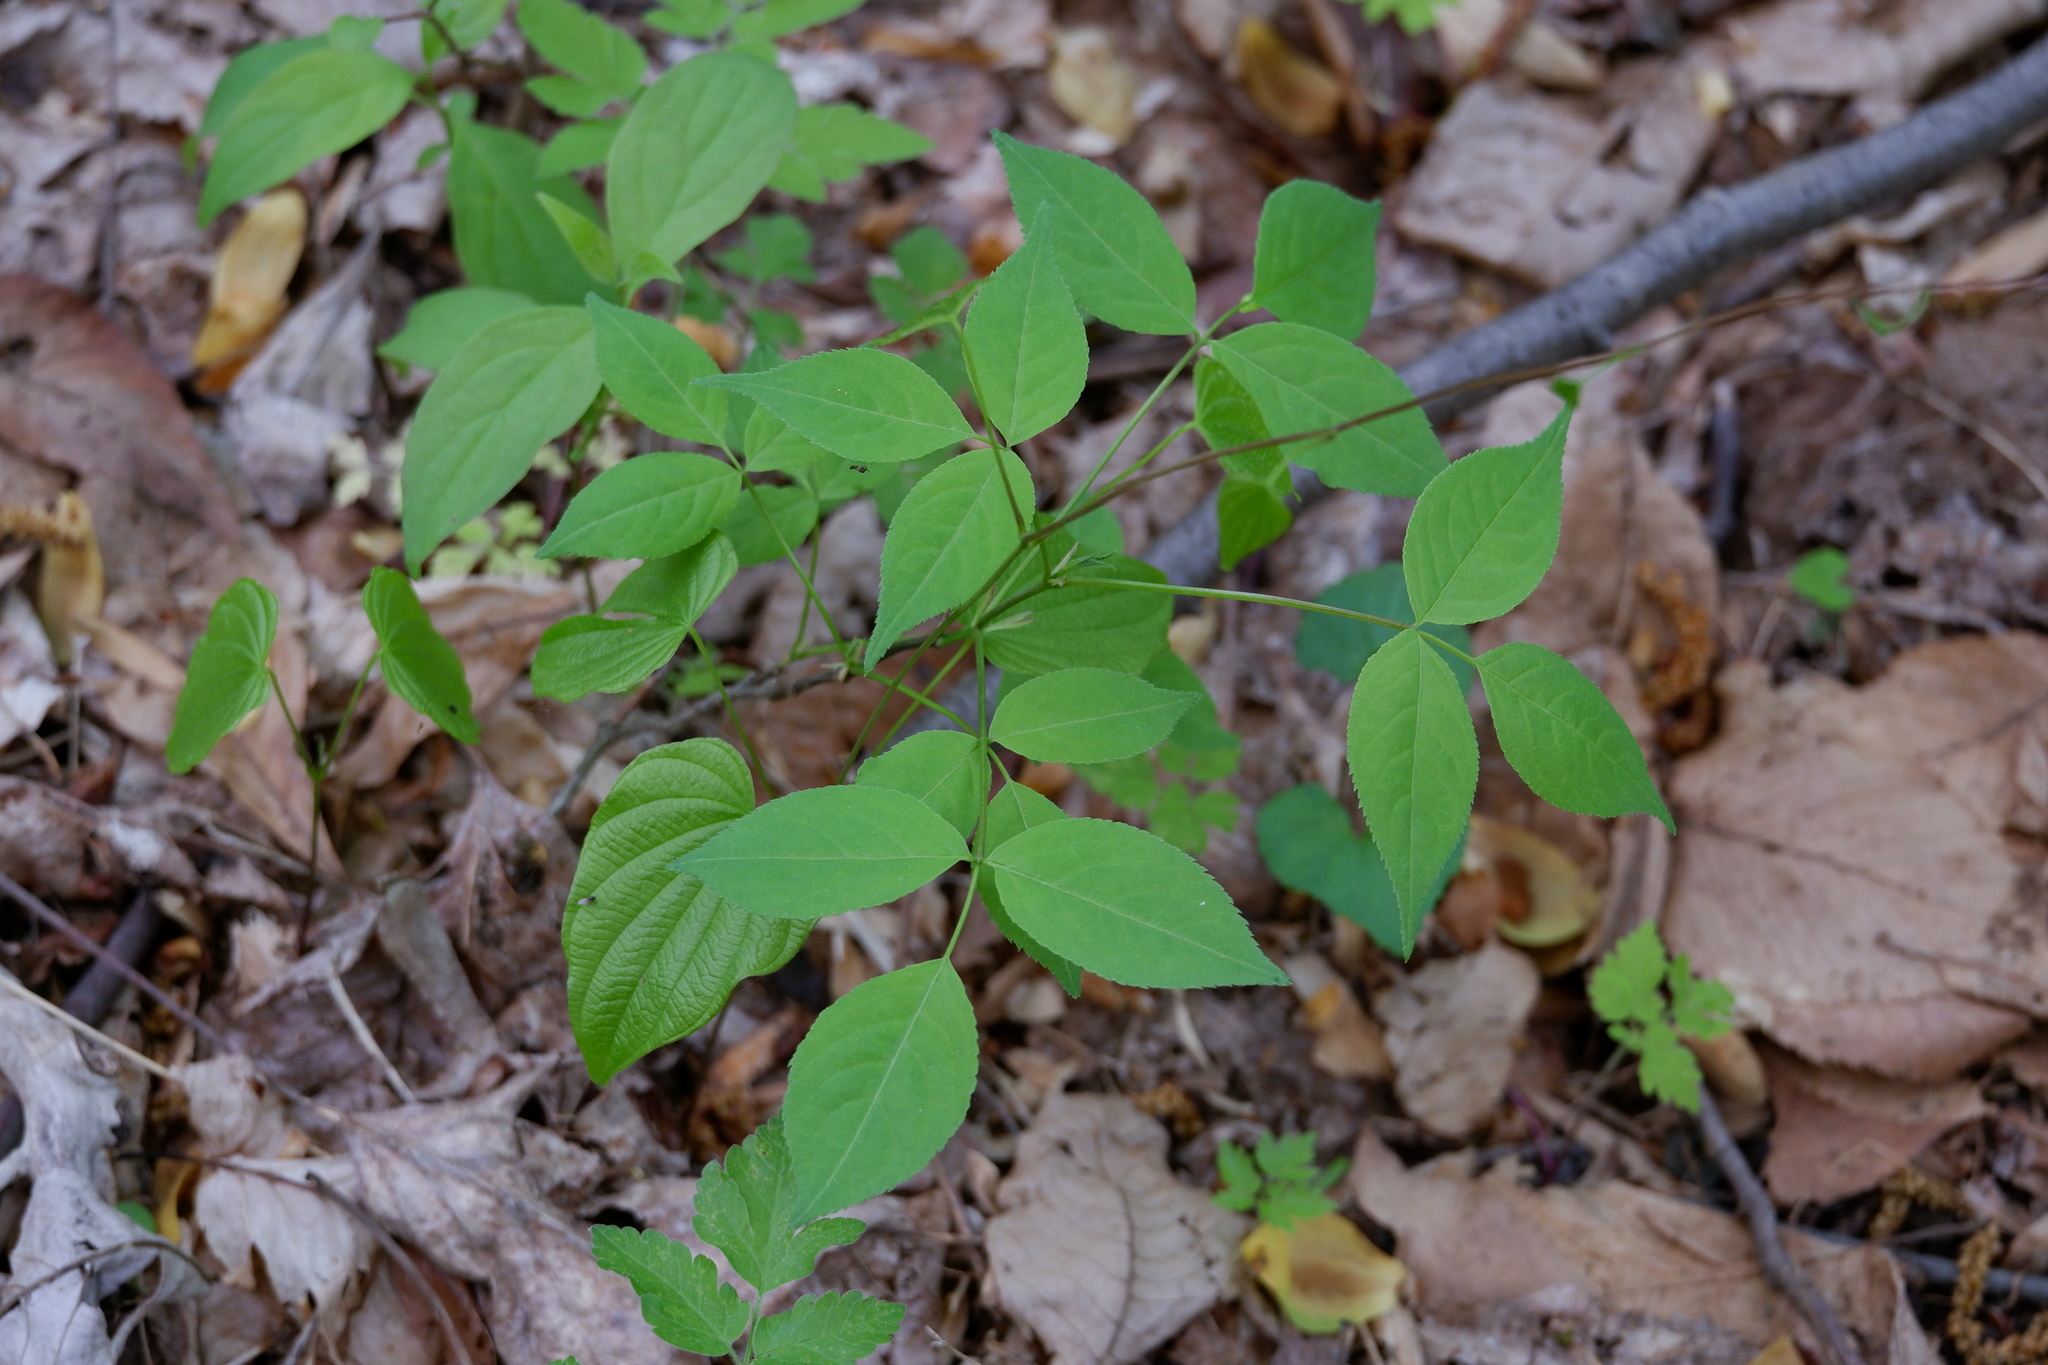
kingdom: Plantae
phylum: Tracheophyta
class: Liliopsida
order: Dioscoreales
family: Dioscoreaceae
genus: Dioscorea
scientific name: Dioscorea villosa
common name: Wild yam
